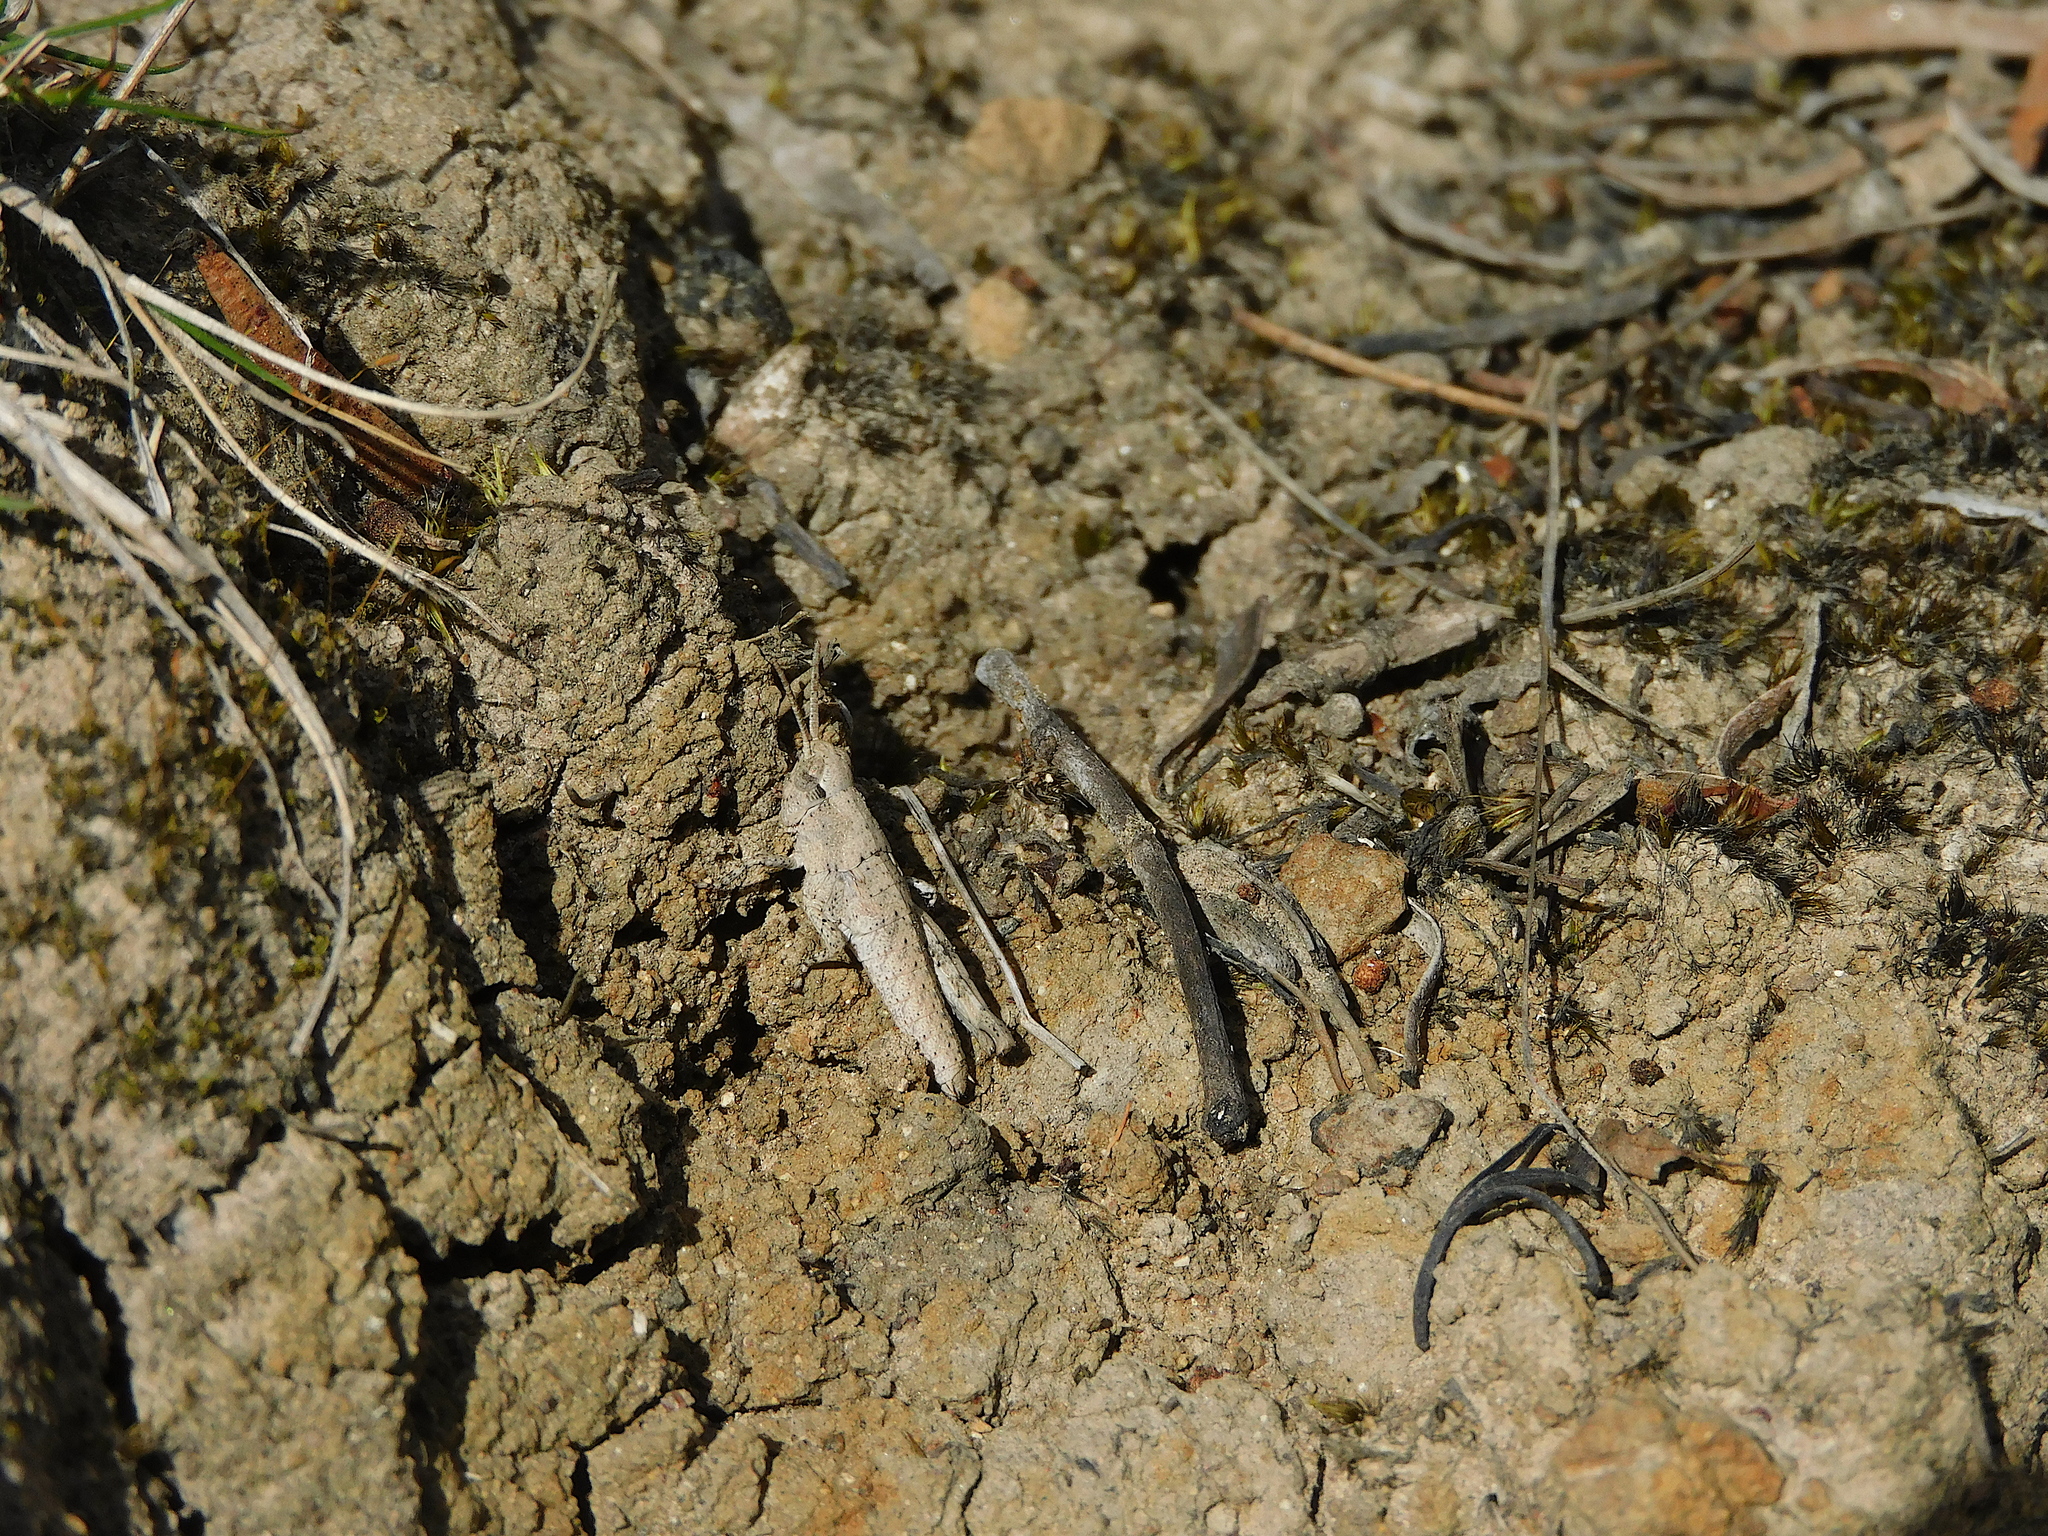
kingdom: Animalia
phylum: Arthropoda
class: Insecta
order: Orthoptera
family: Acrididae
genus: Tasmaniacris
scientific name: Tasmaniacris tasmaniensis
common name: Tasmanian grasshopper
